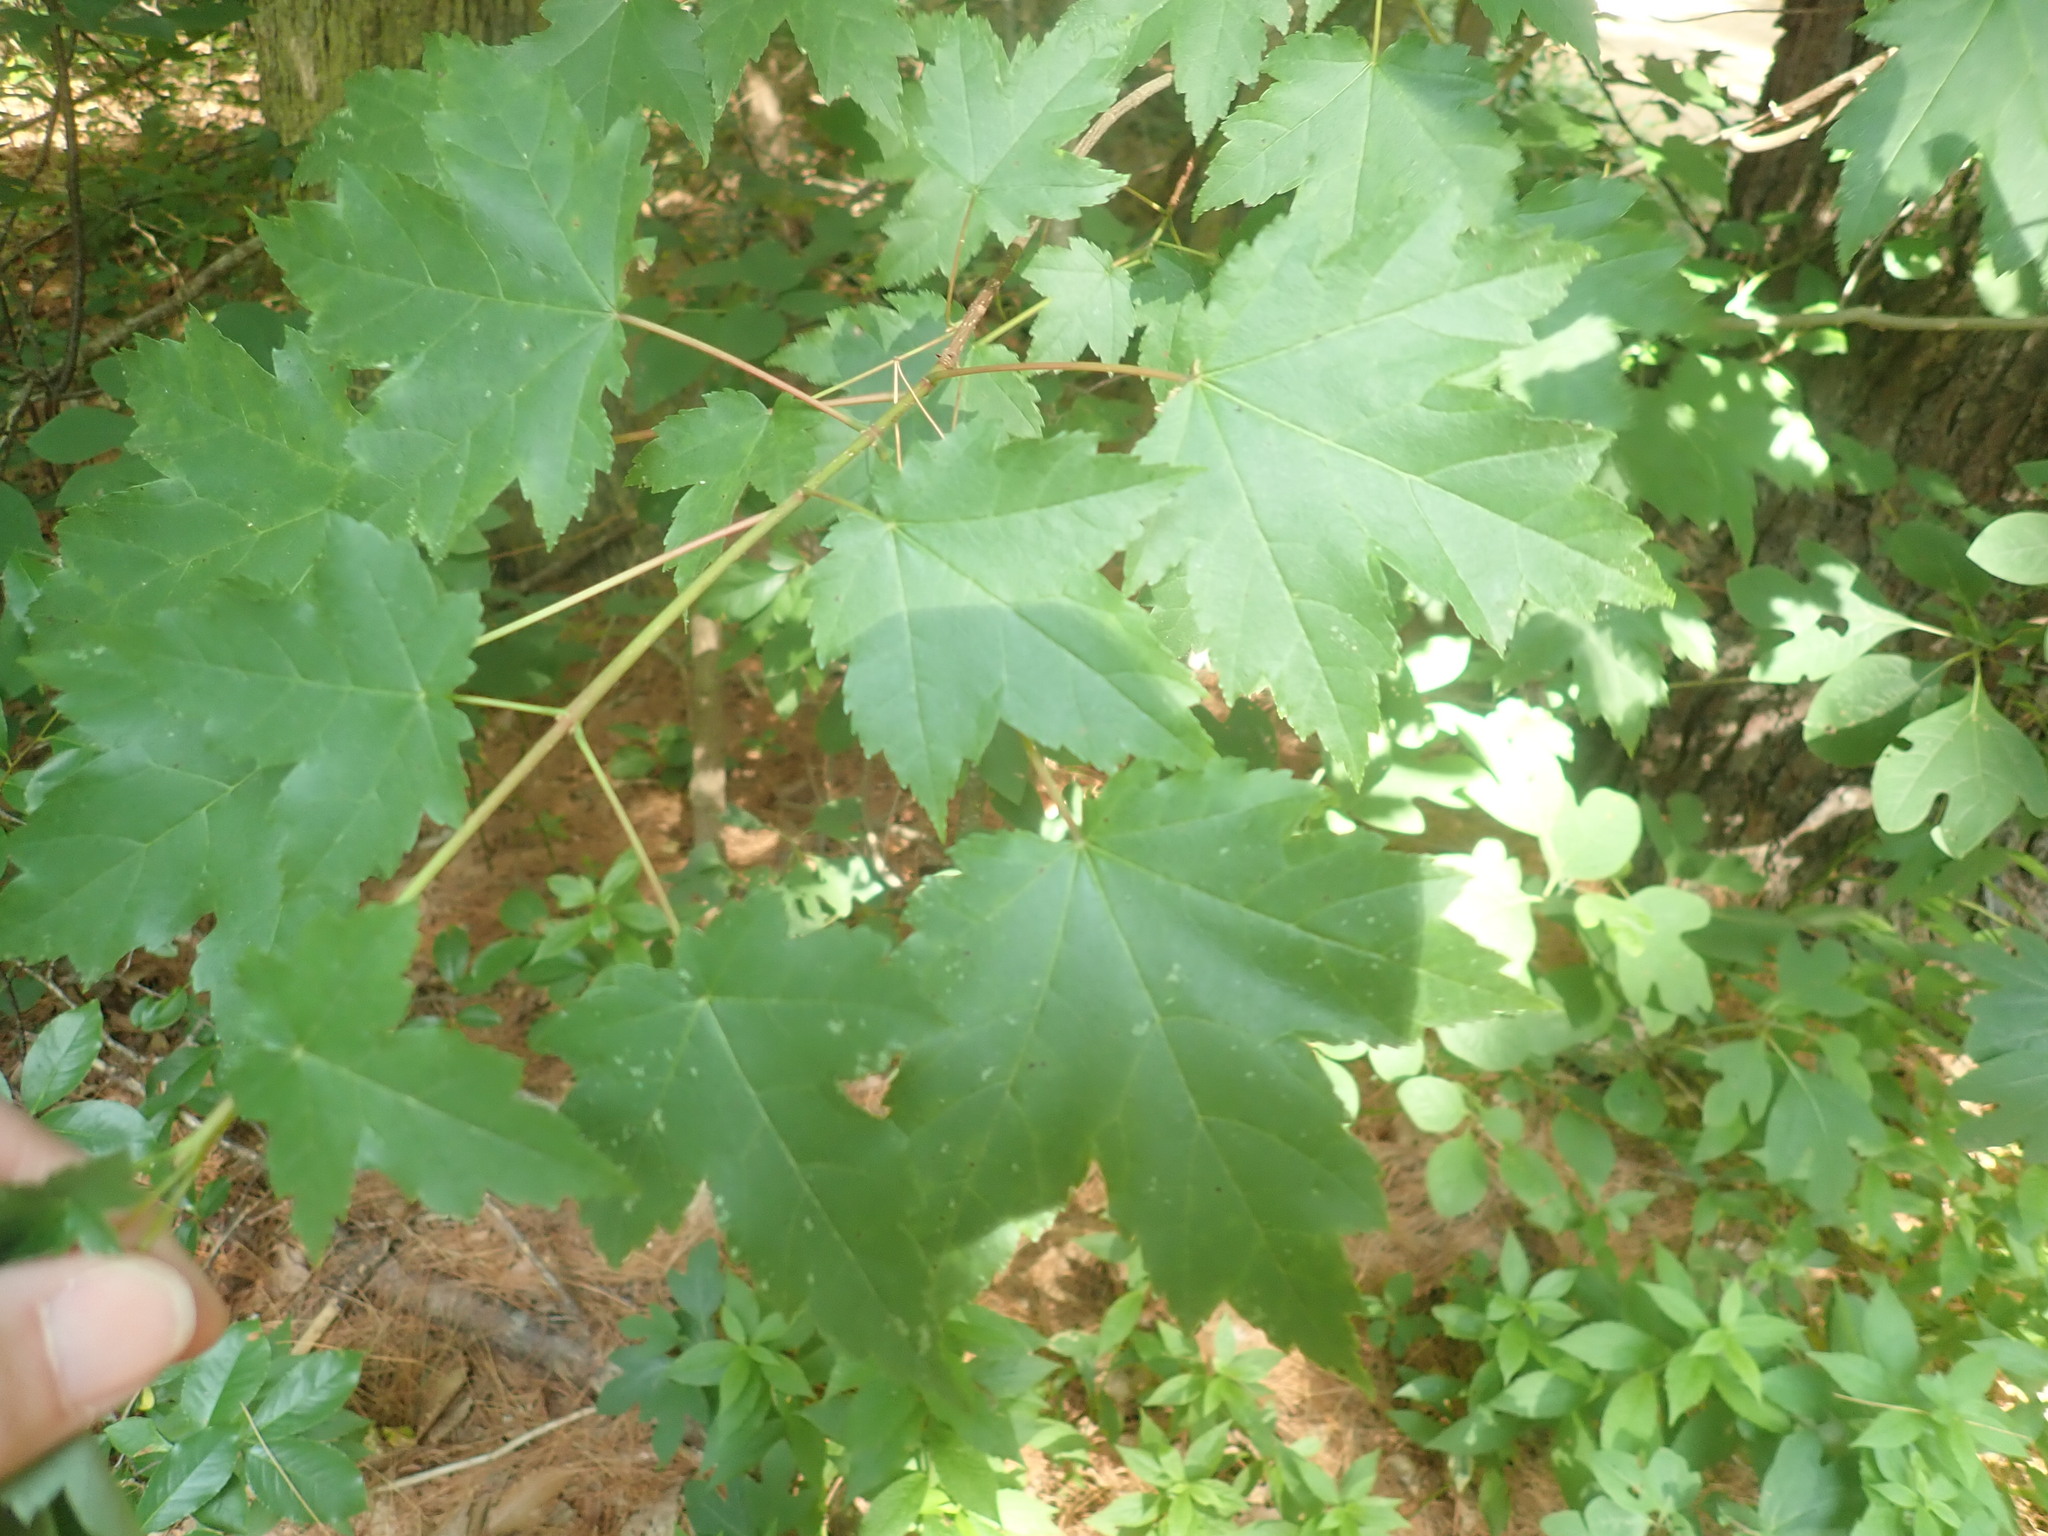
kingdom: Plantae
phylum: Tracheophyta
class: Magnoliopsida
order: Sapindales
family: Sapindaceae
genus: Acer
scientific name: Acer rubrum
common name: Red maple
